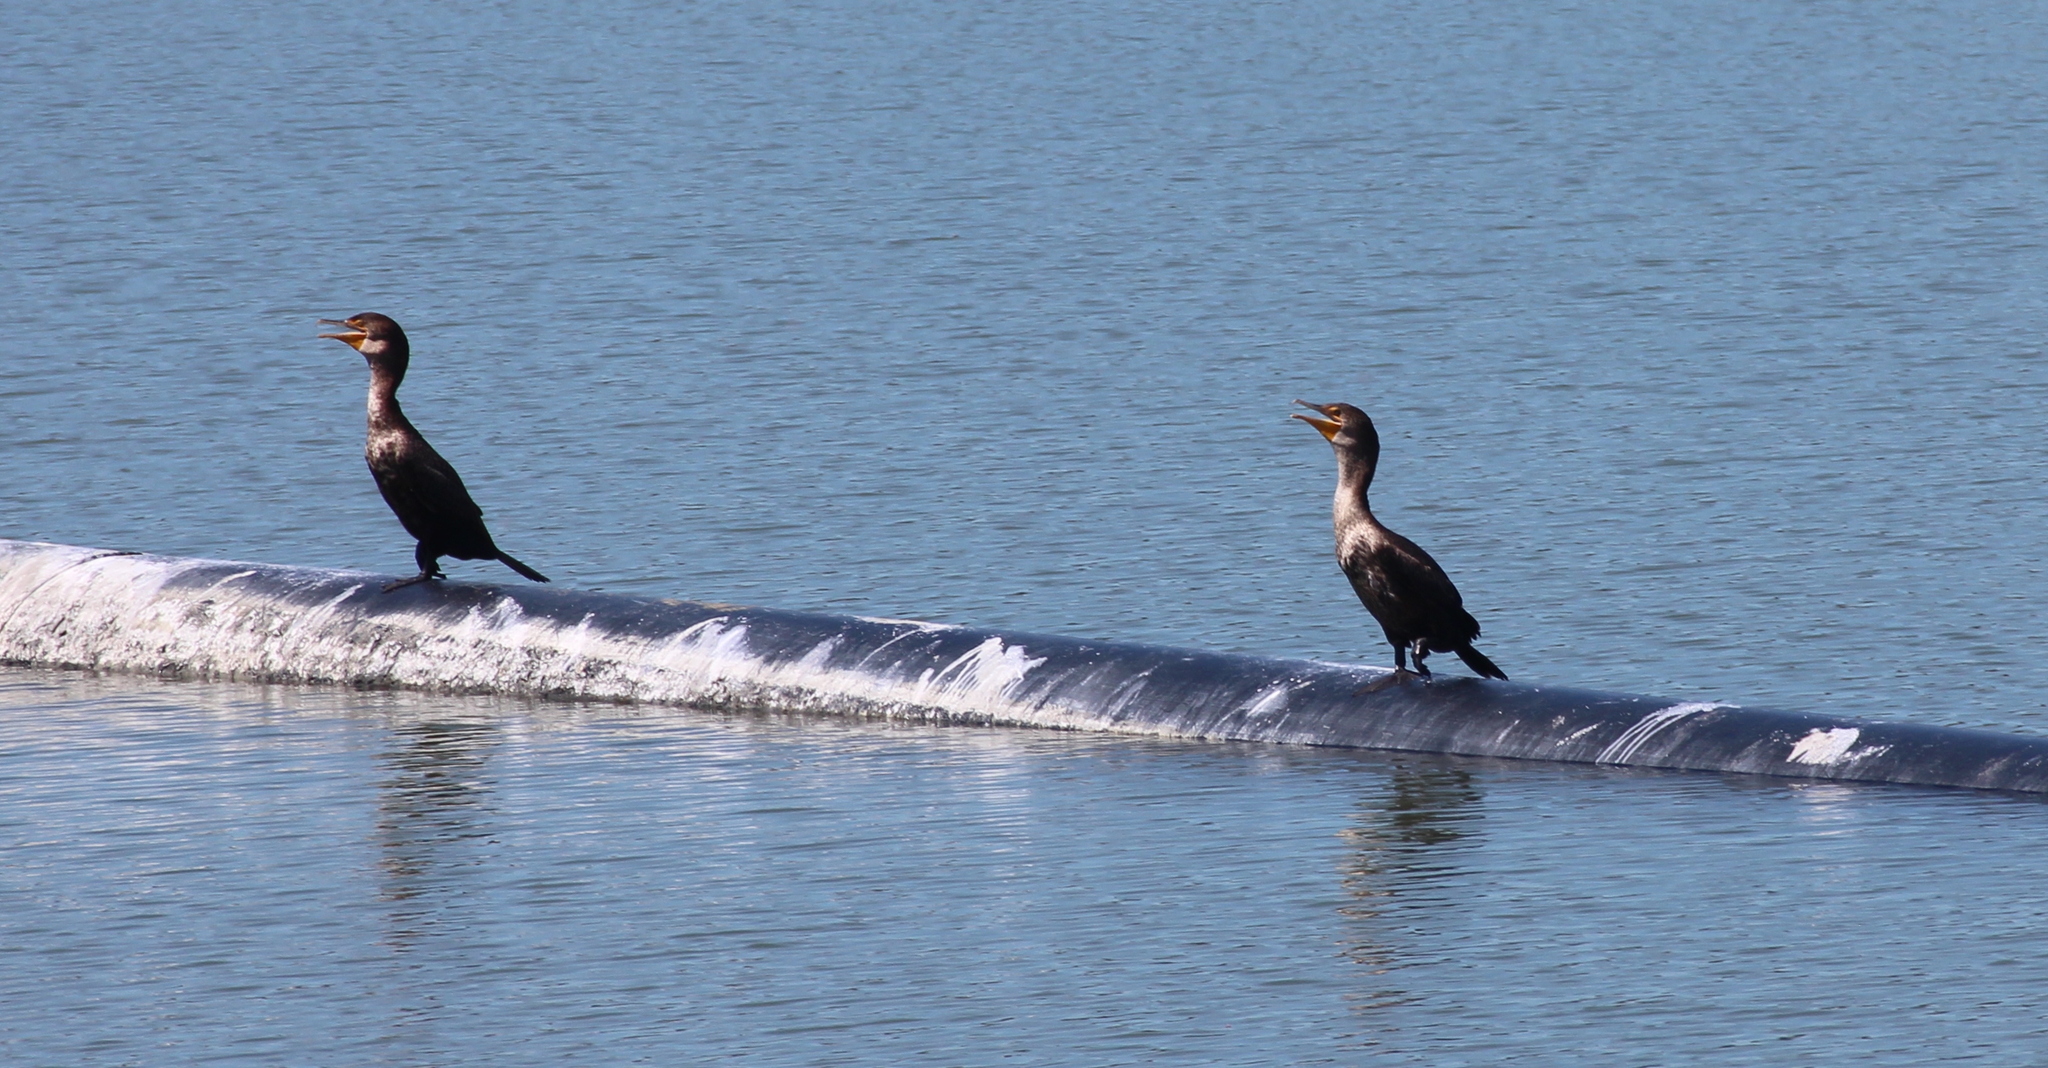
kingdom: Animalia
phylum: Chordata
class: Aves
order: Suliformes
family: Phalacrocoracidae
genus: Phalacrocorax
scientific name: Phalacrocorax auritus
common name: Double-crested cormorant
